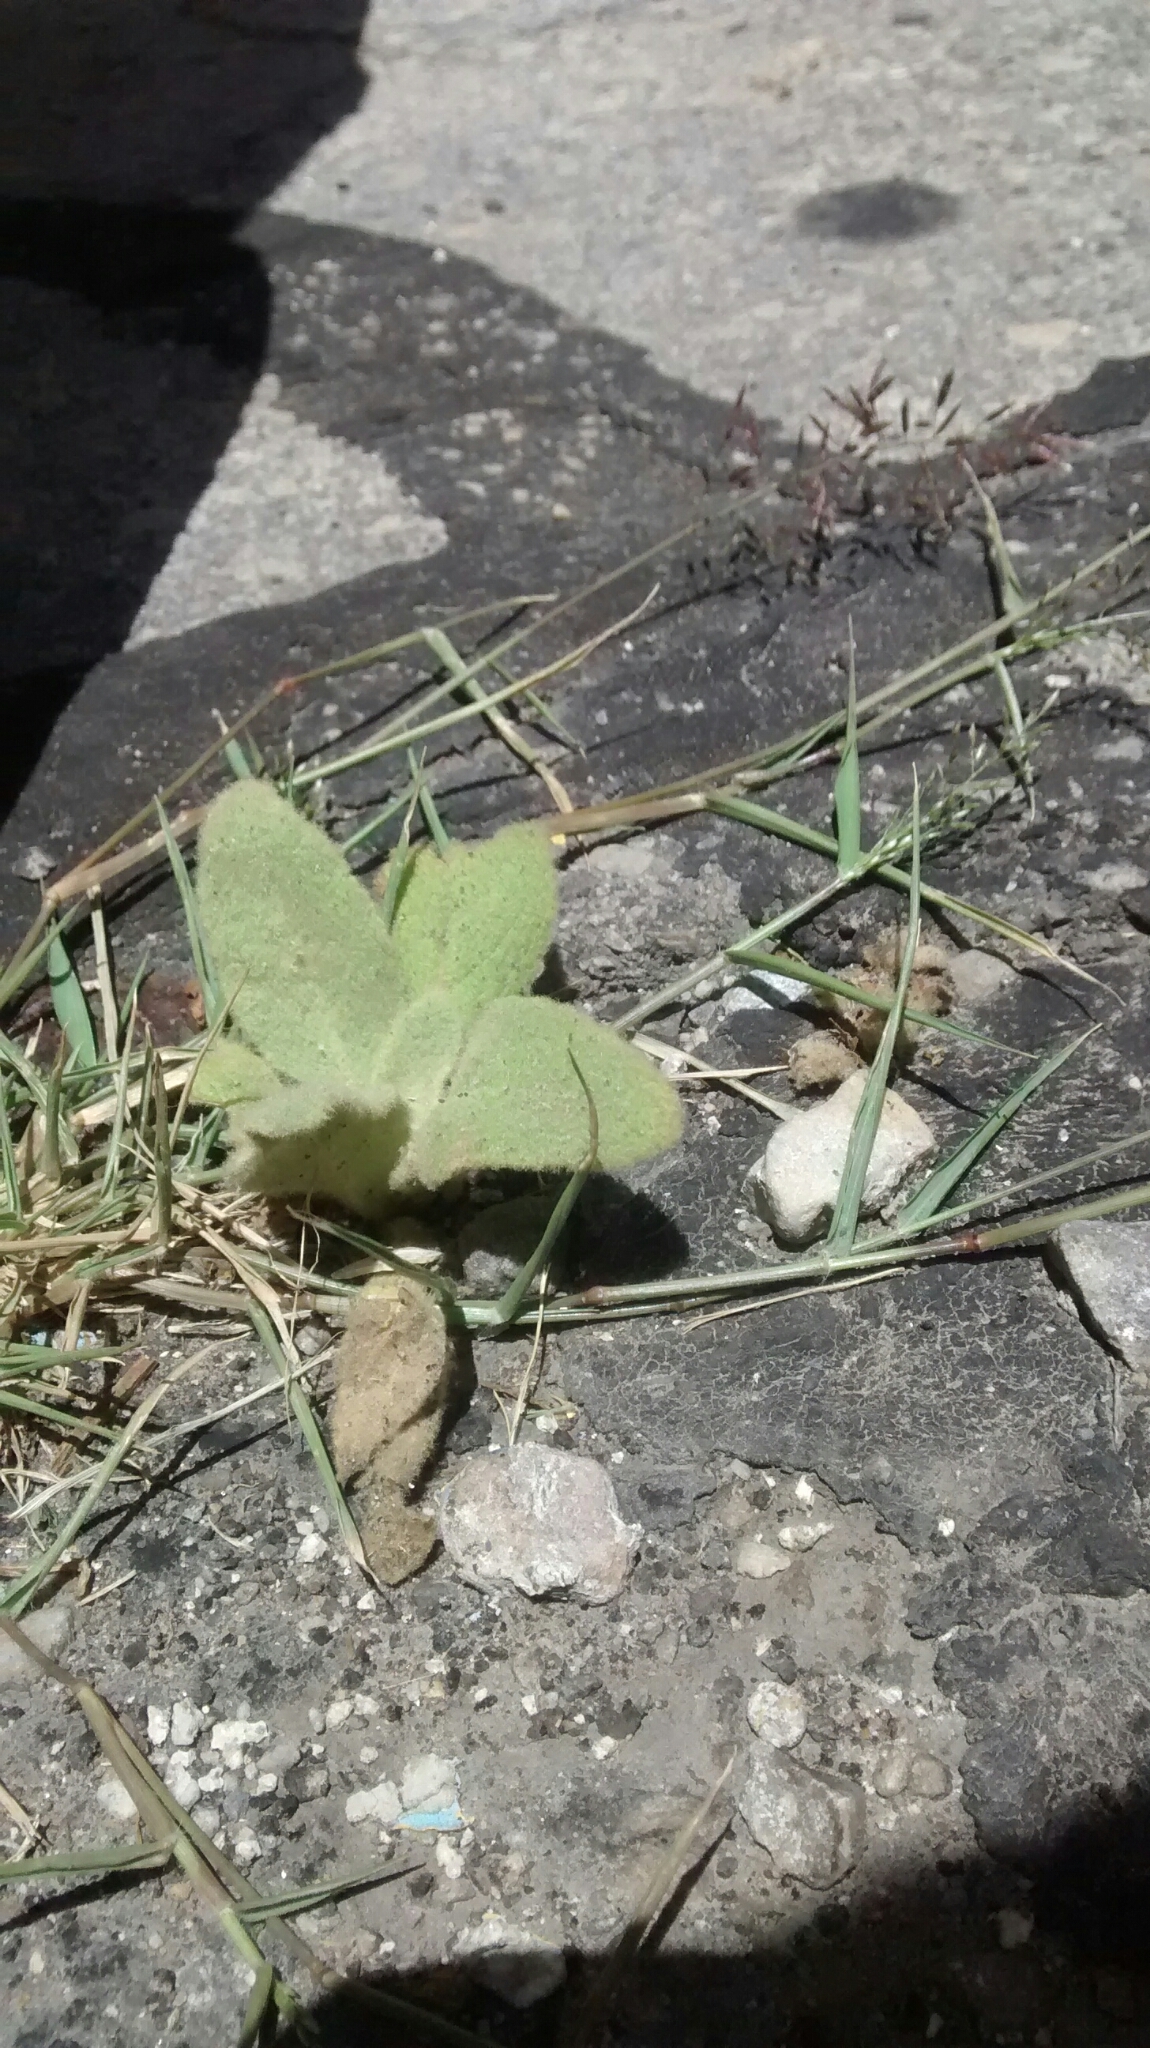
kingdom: Plantae
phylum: Tracheophyta
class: Magnoliopsida
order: Lamiales
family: Scrophulariaceae
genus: Verbascum
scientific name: Verbascum thapsus
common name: Common mullein
